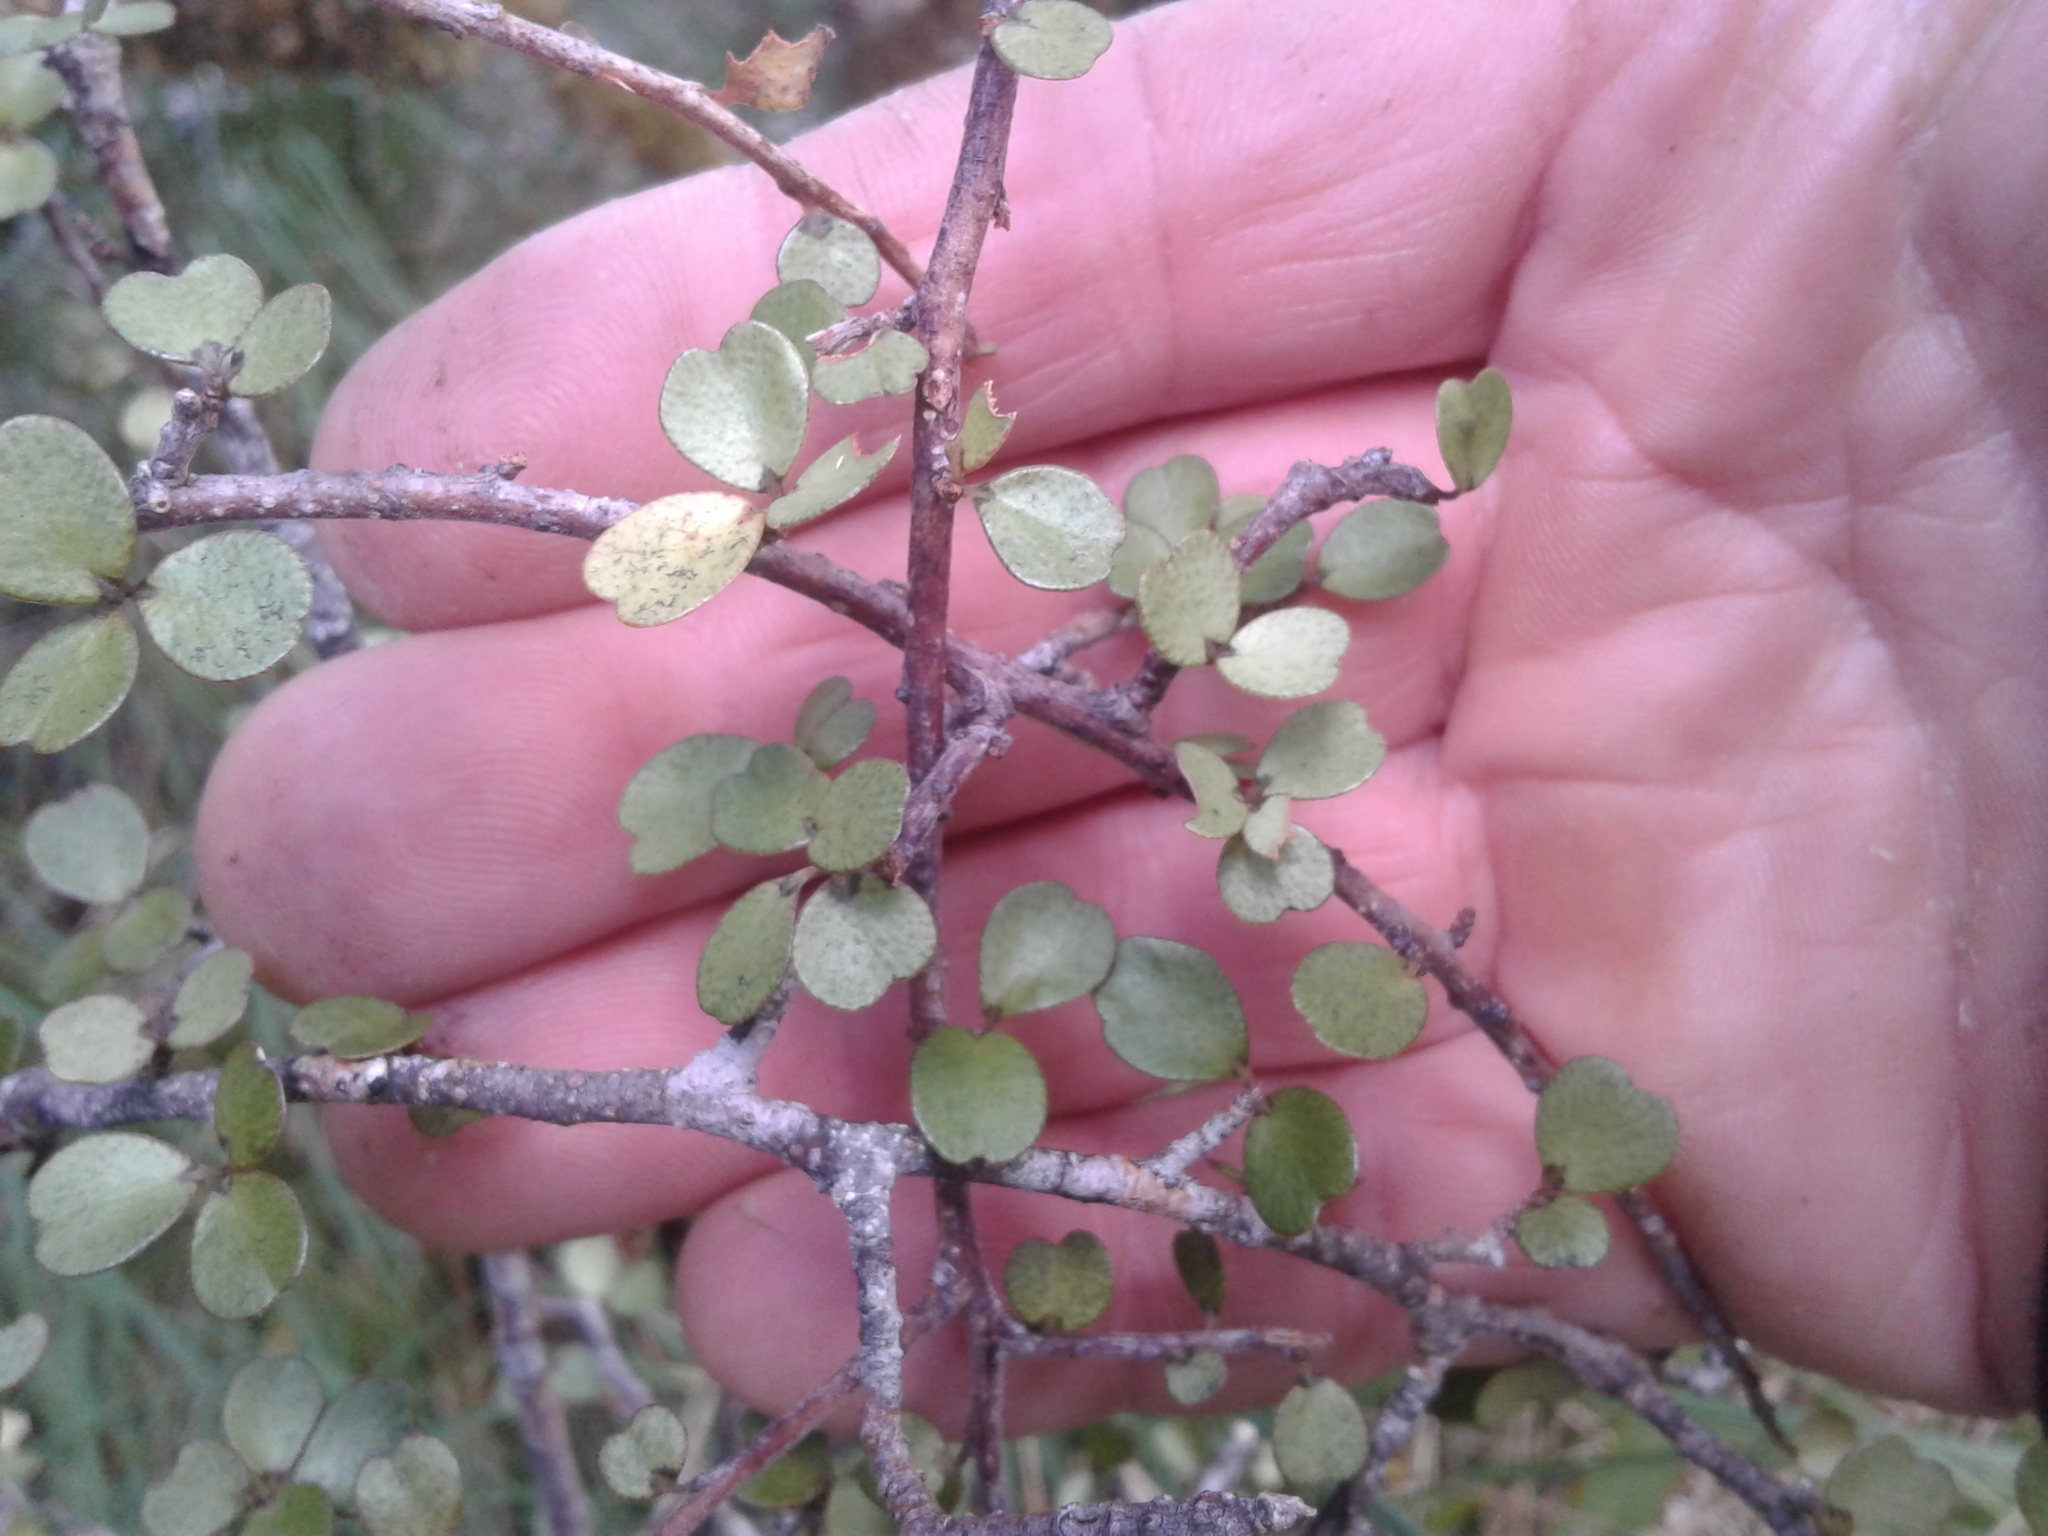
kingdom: Plantae
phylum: Tracheophyta
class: Magnoliopsida
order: Ericales
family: Primulaceae
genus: Myrsine
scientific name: Myrsine divaricata
